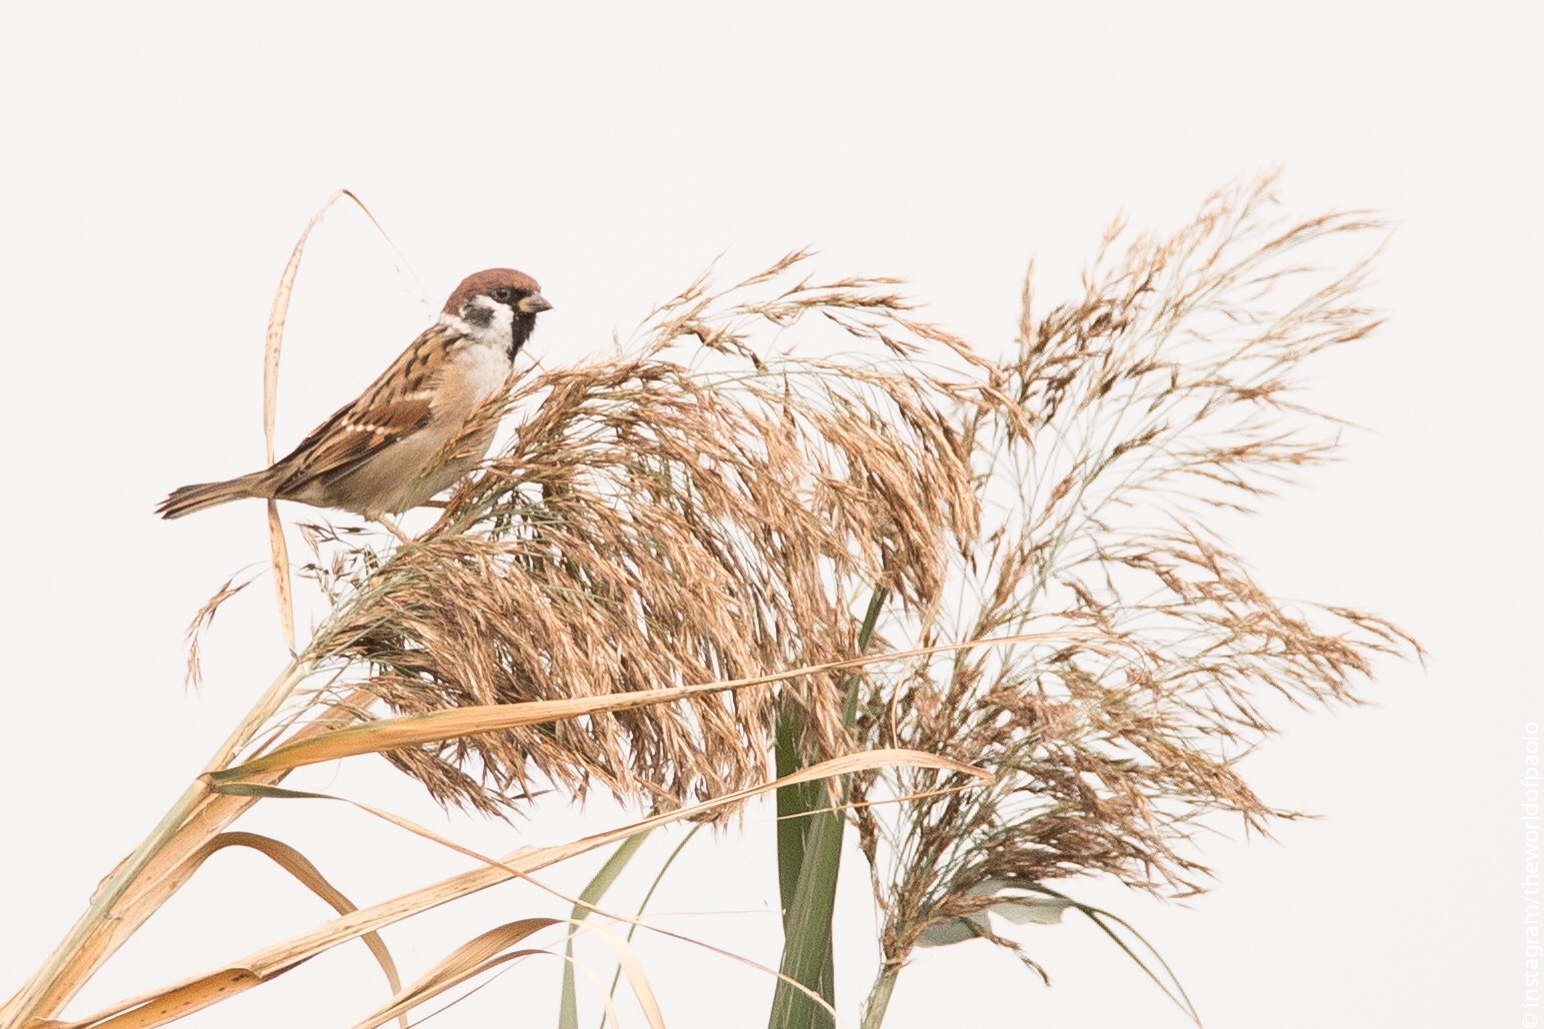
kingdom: Animalia
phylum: Chordata
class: Aves
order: Passeriformes
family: Passeridae
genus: Passer
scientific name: Passer montanus
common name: Eurasian tree sparrow
